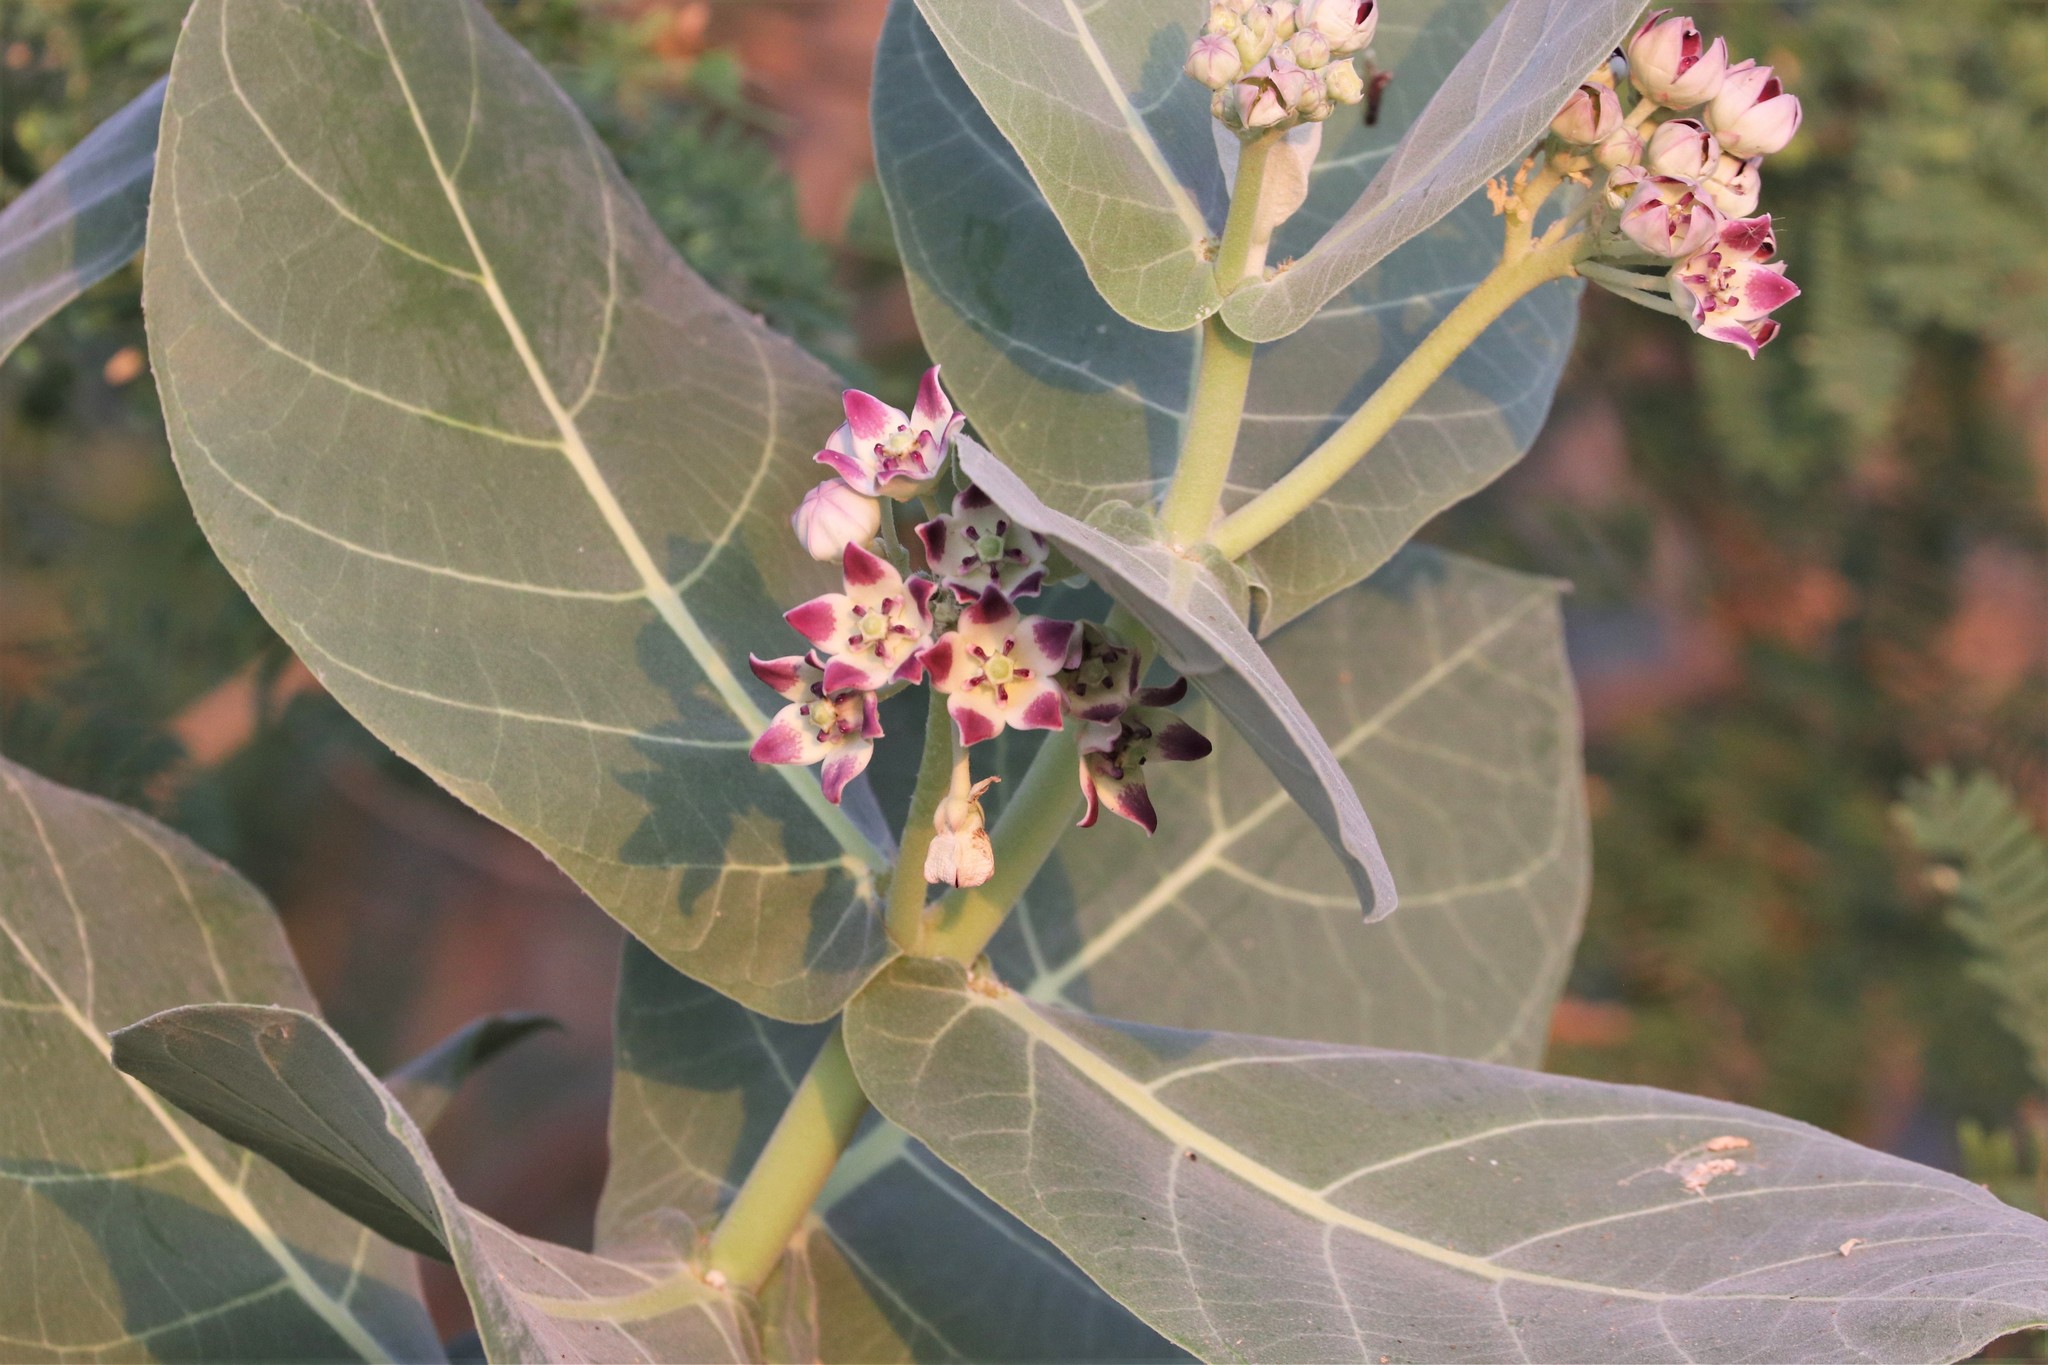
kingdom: Plantae
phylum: Tracheophyta
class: Magnoliopsida
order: Gentianales
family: Apocynaceae
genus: Calotropis
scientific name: Calotropis procera
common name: Roostertree
